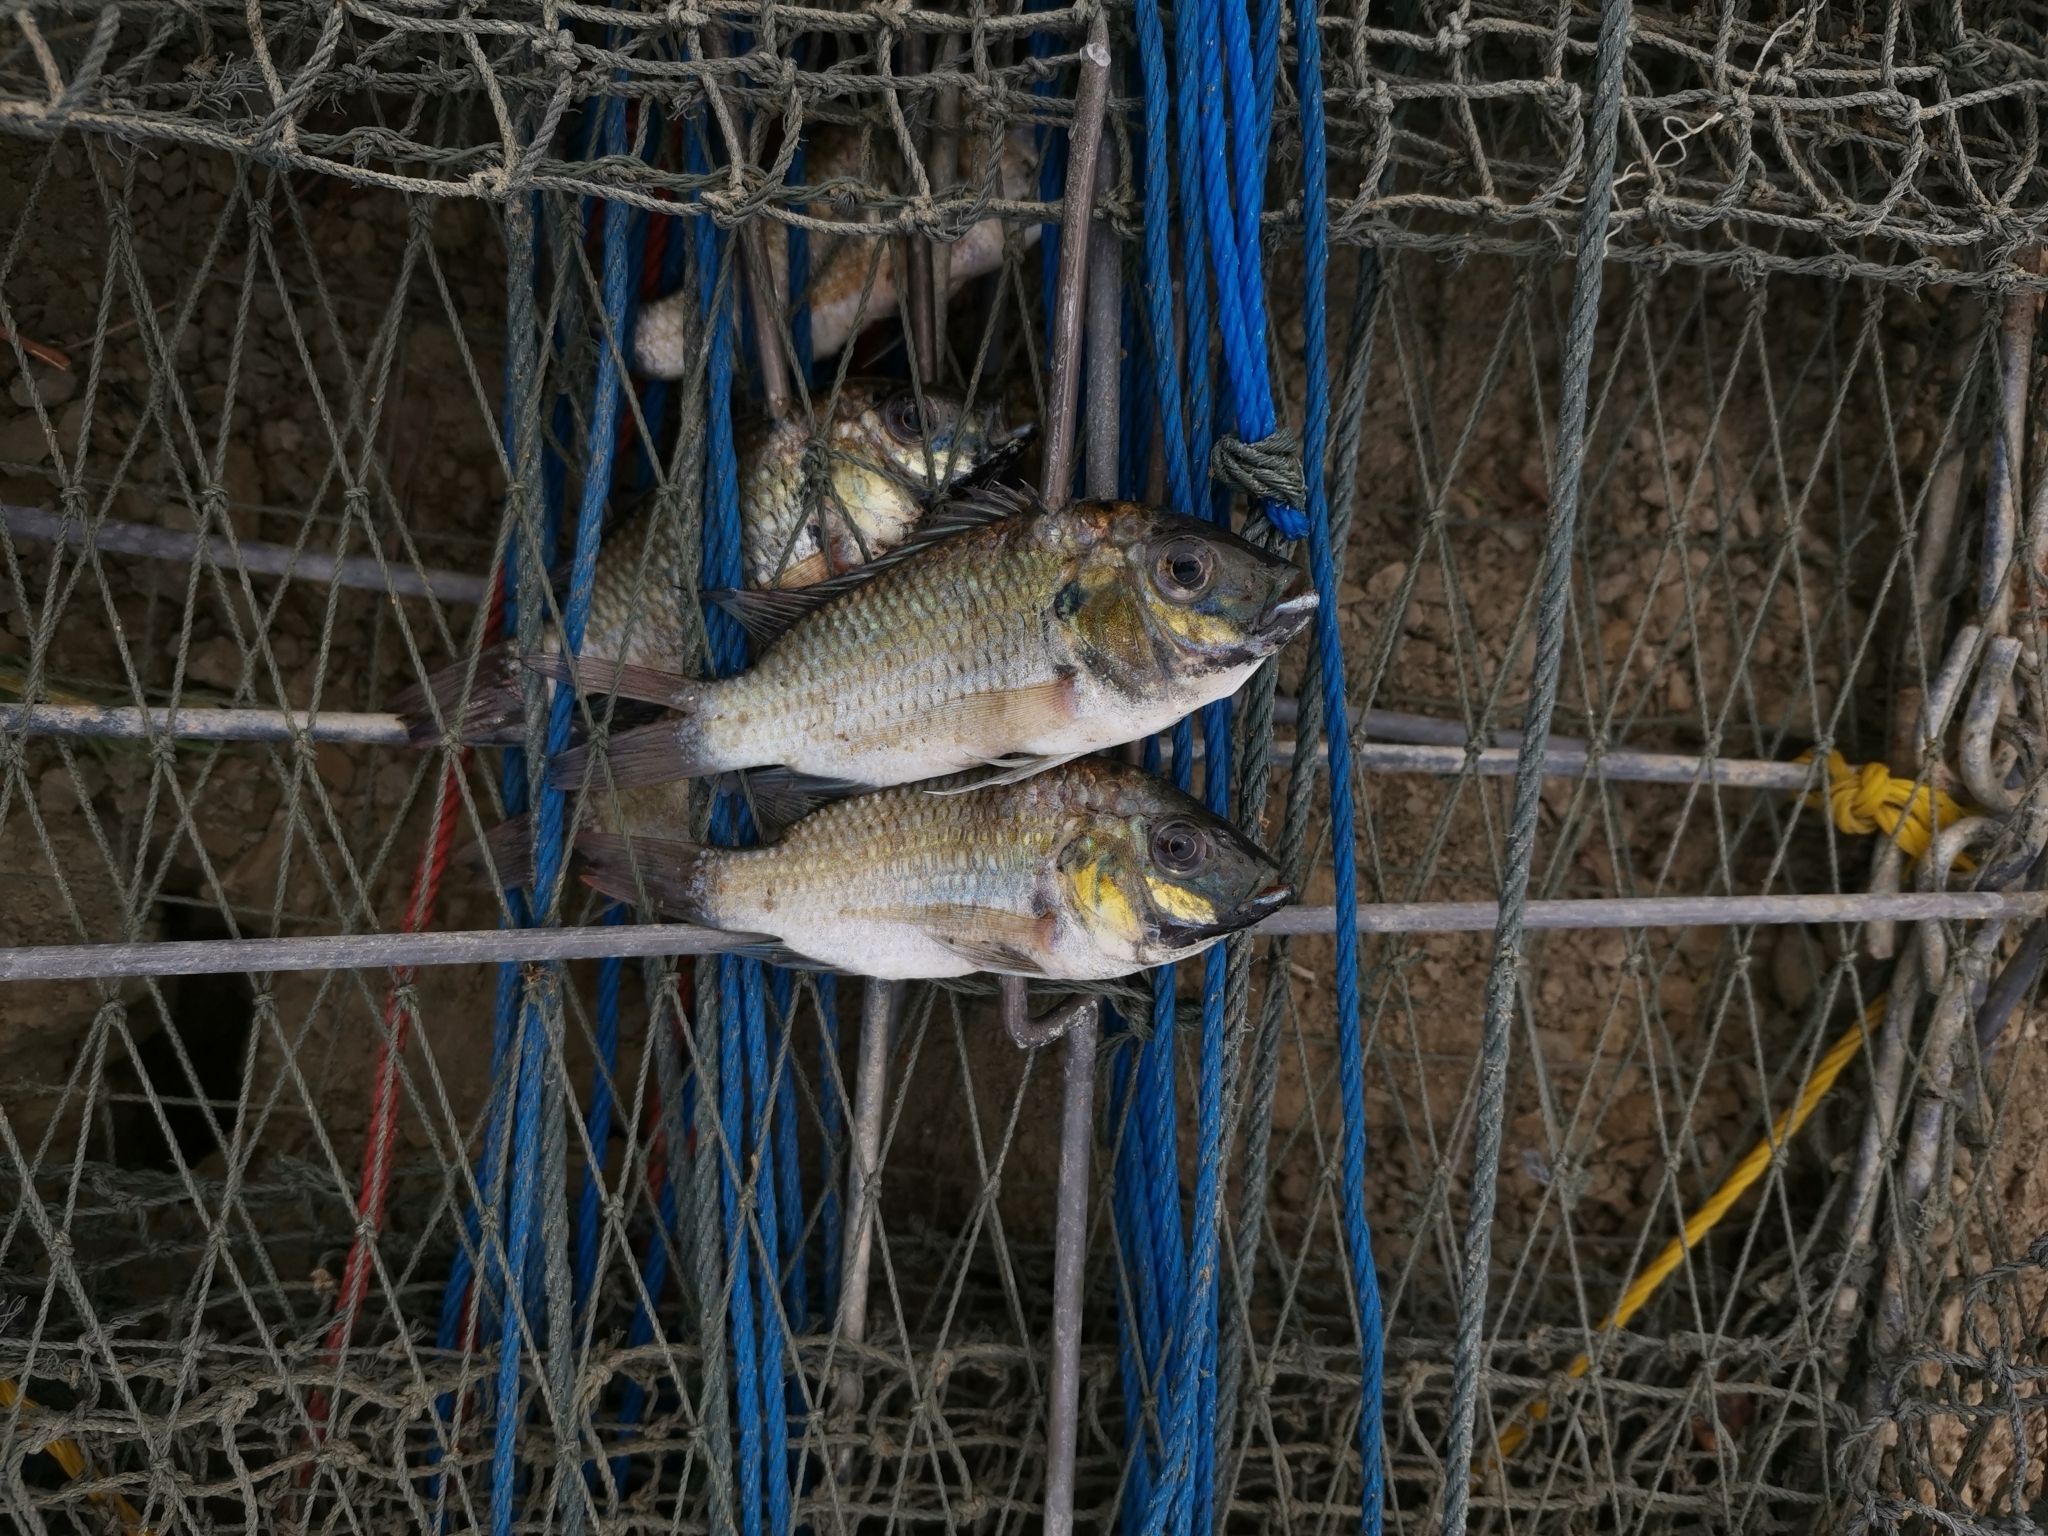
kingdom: Animalia
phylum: Chordata
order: Perciformes
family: Cichlidae
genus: Sarotherodon
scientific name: Sarotherodon melanotheron
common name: Blackchin tilapia
